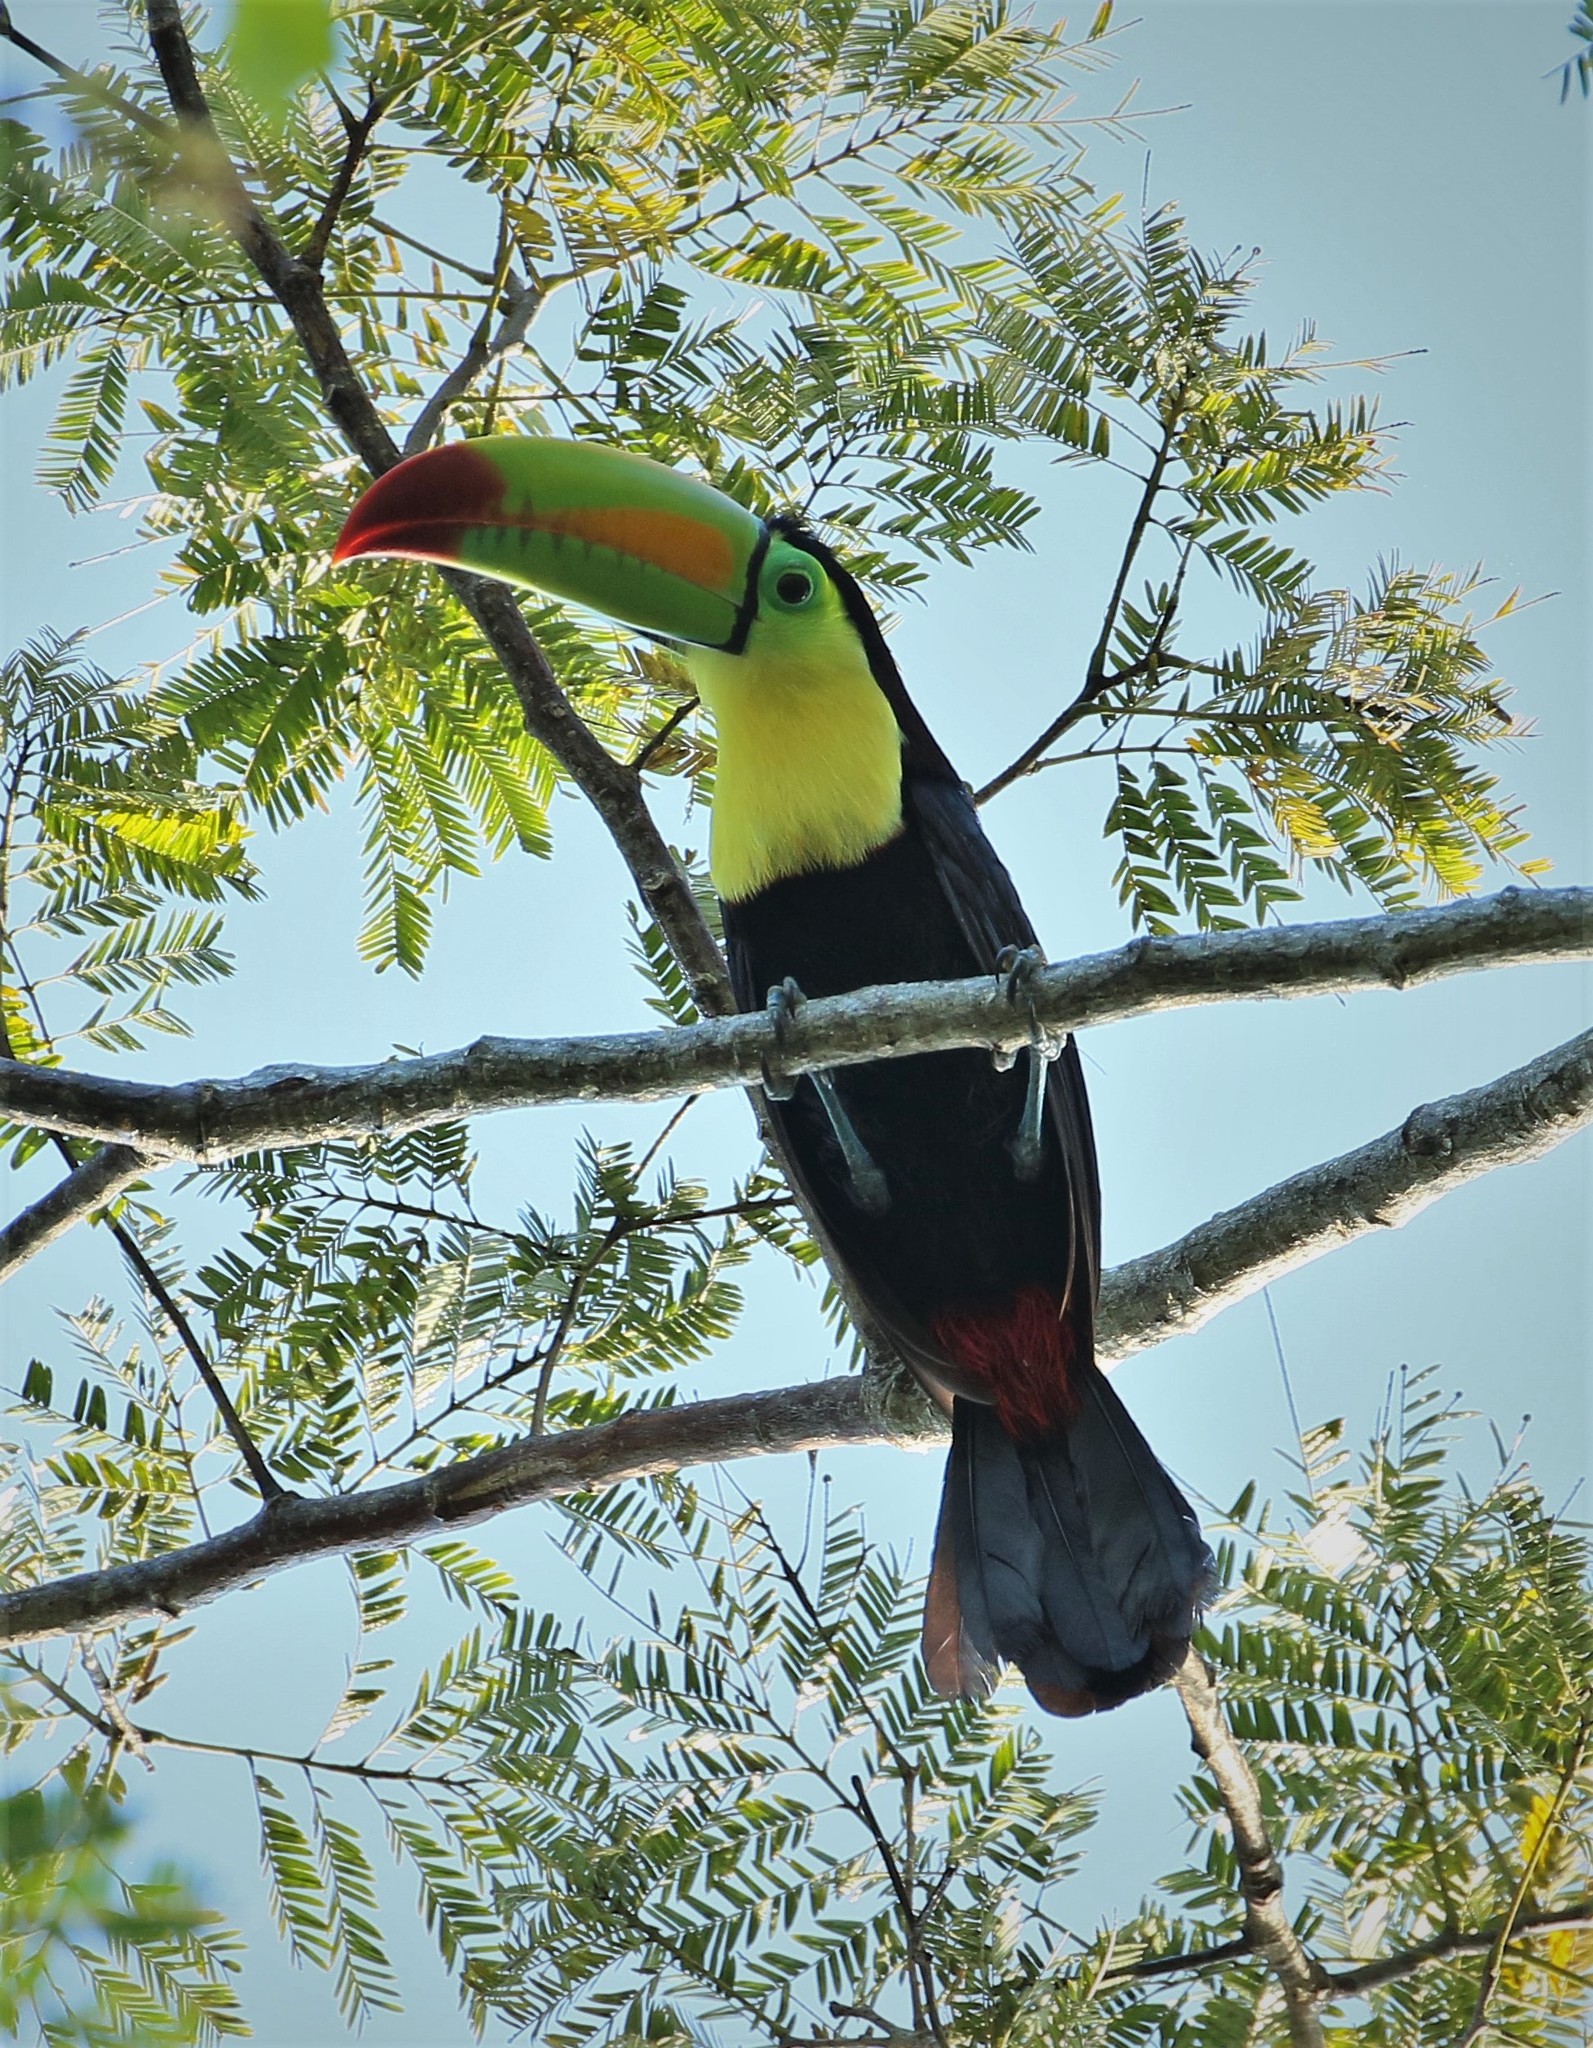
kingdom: Animalia
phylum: Chordata
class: Aves
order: Piciformes
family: Ramphastidae
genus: Ramphastos
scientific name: Ramphastos sulfuratus
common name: Keel-billed toucan
